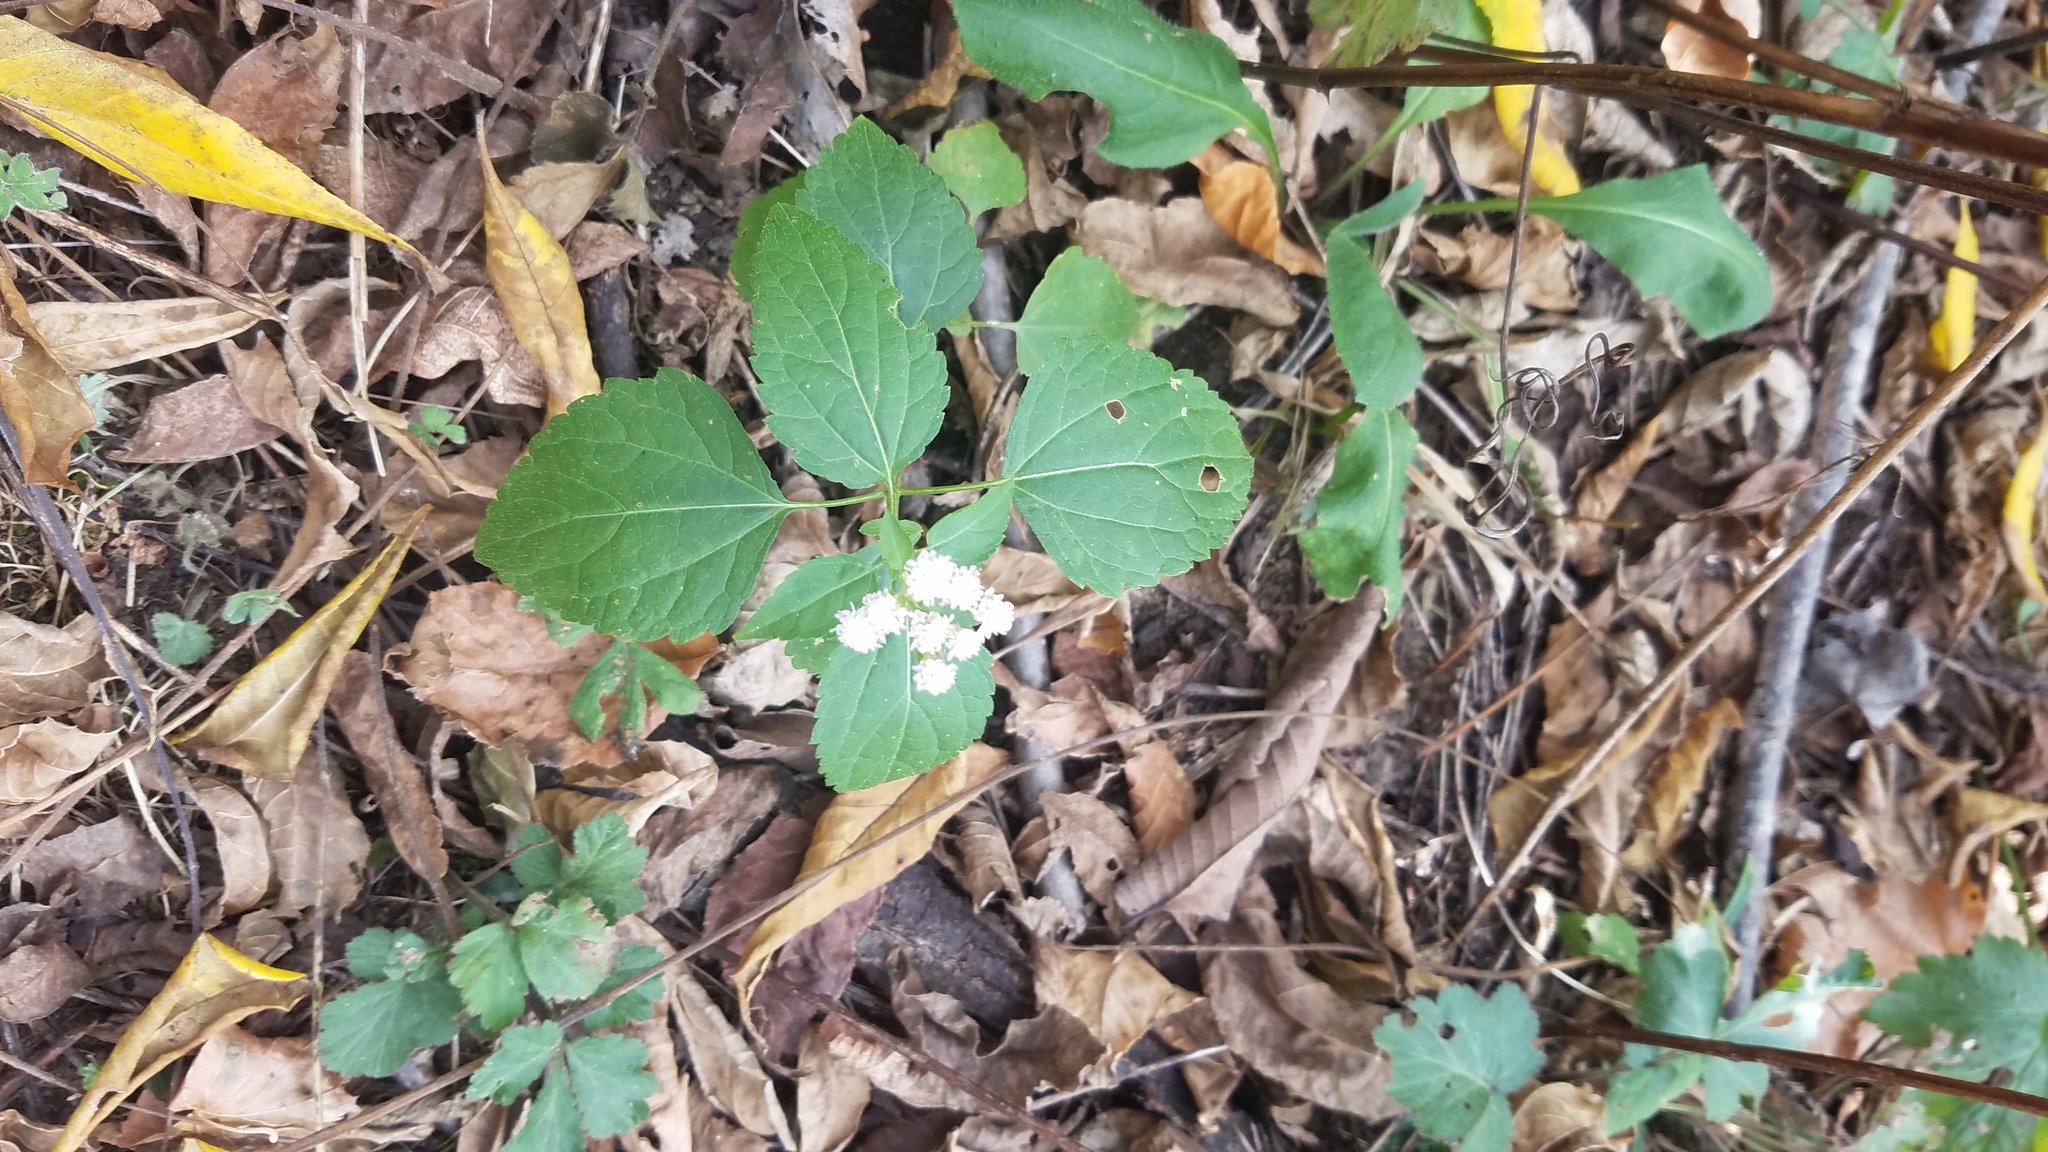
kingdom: Plantae
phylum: Tracheophyta
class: Magnoliopsida
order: Asterales
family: Asteraceae
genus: Ageratina
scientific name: Ageratina altissima
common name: White snakeroot
